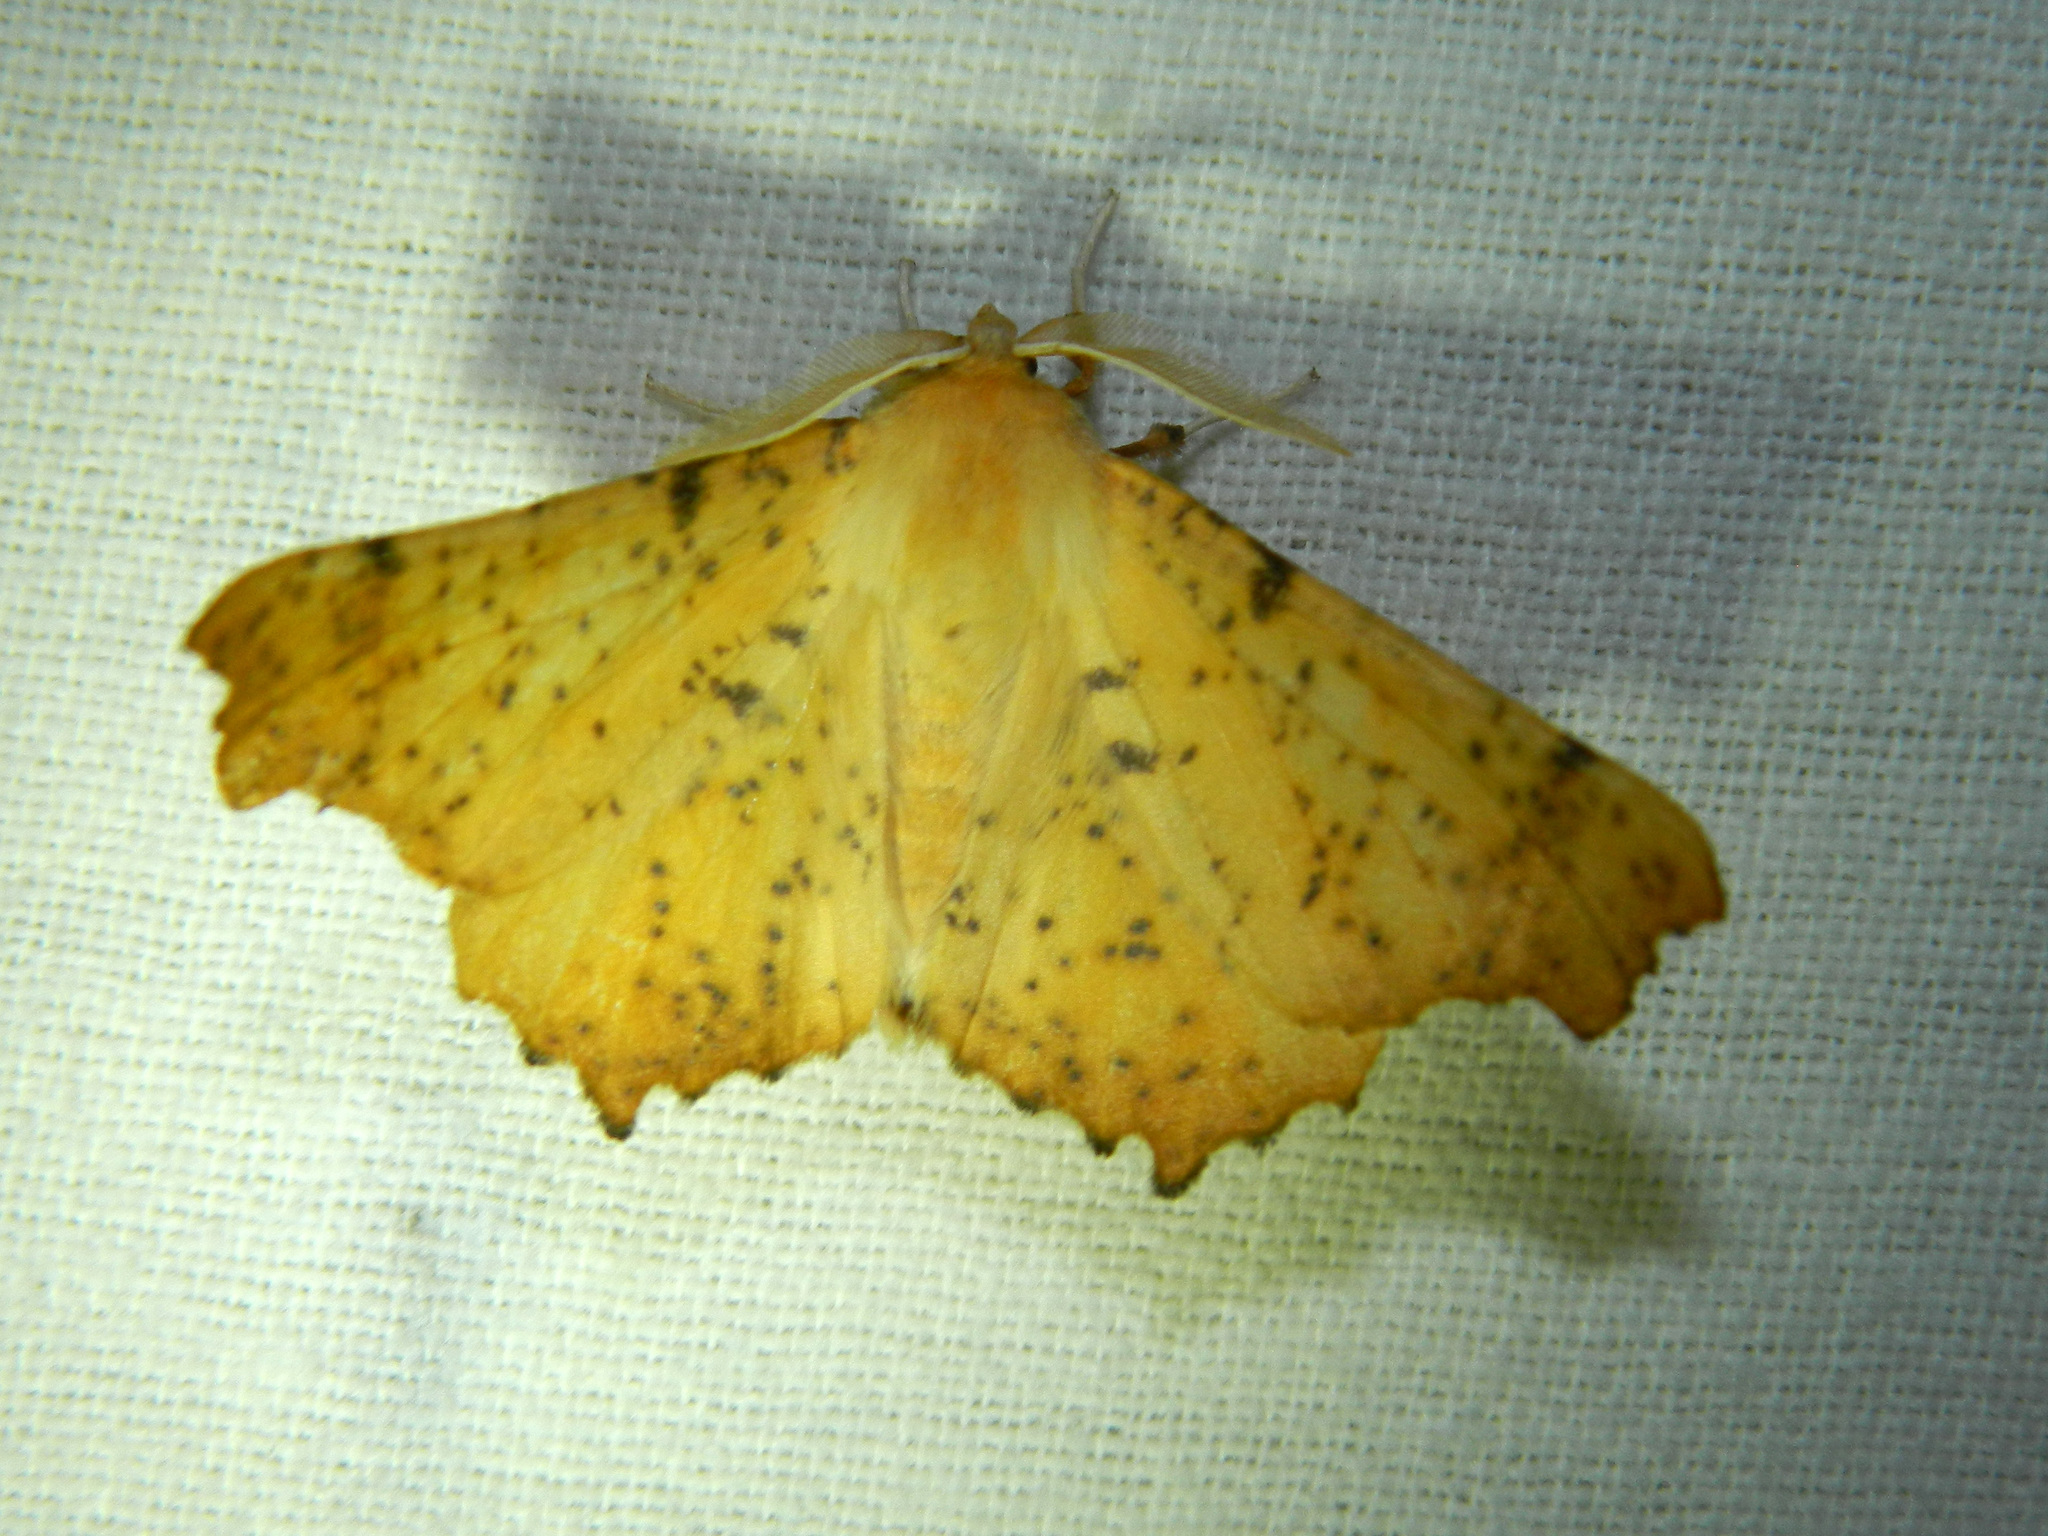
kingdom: Animalia
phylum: Arthropoda
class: Insecta
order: Lepidoptera
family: Geometridae
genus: Ennomos
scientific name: Ennomos magnaria
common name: Maple spanworm
